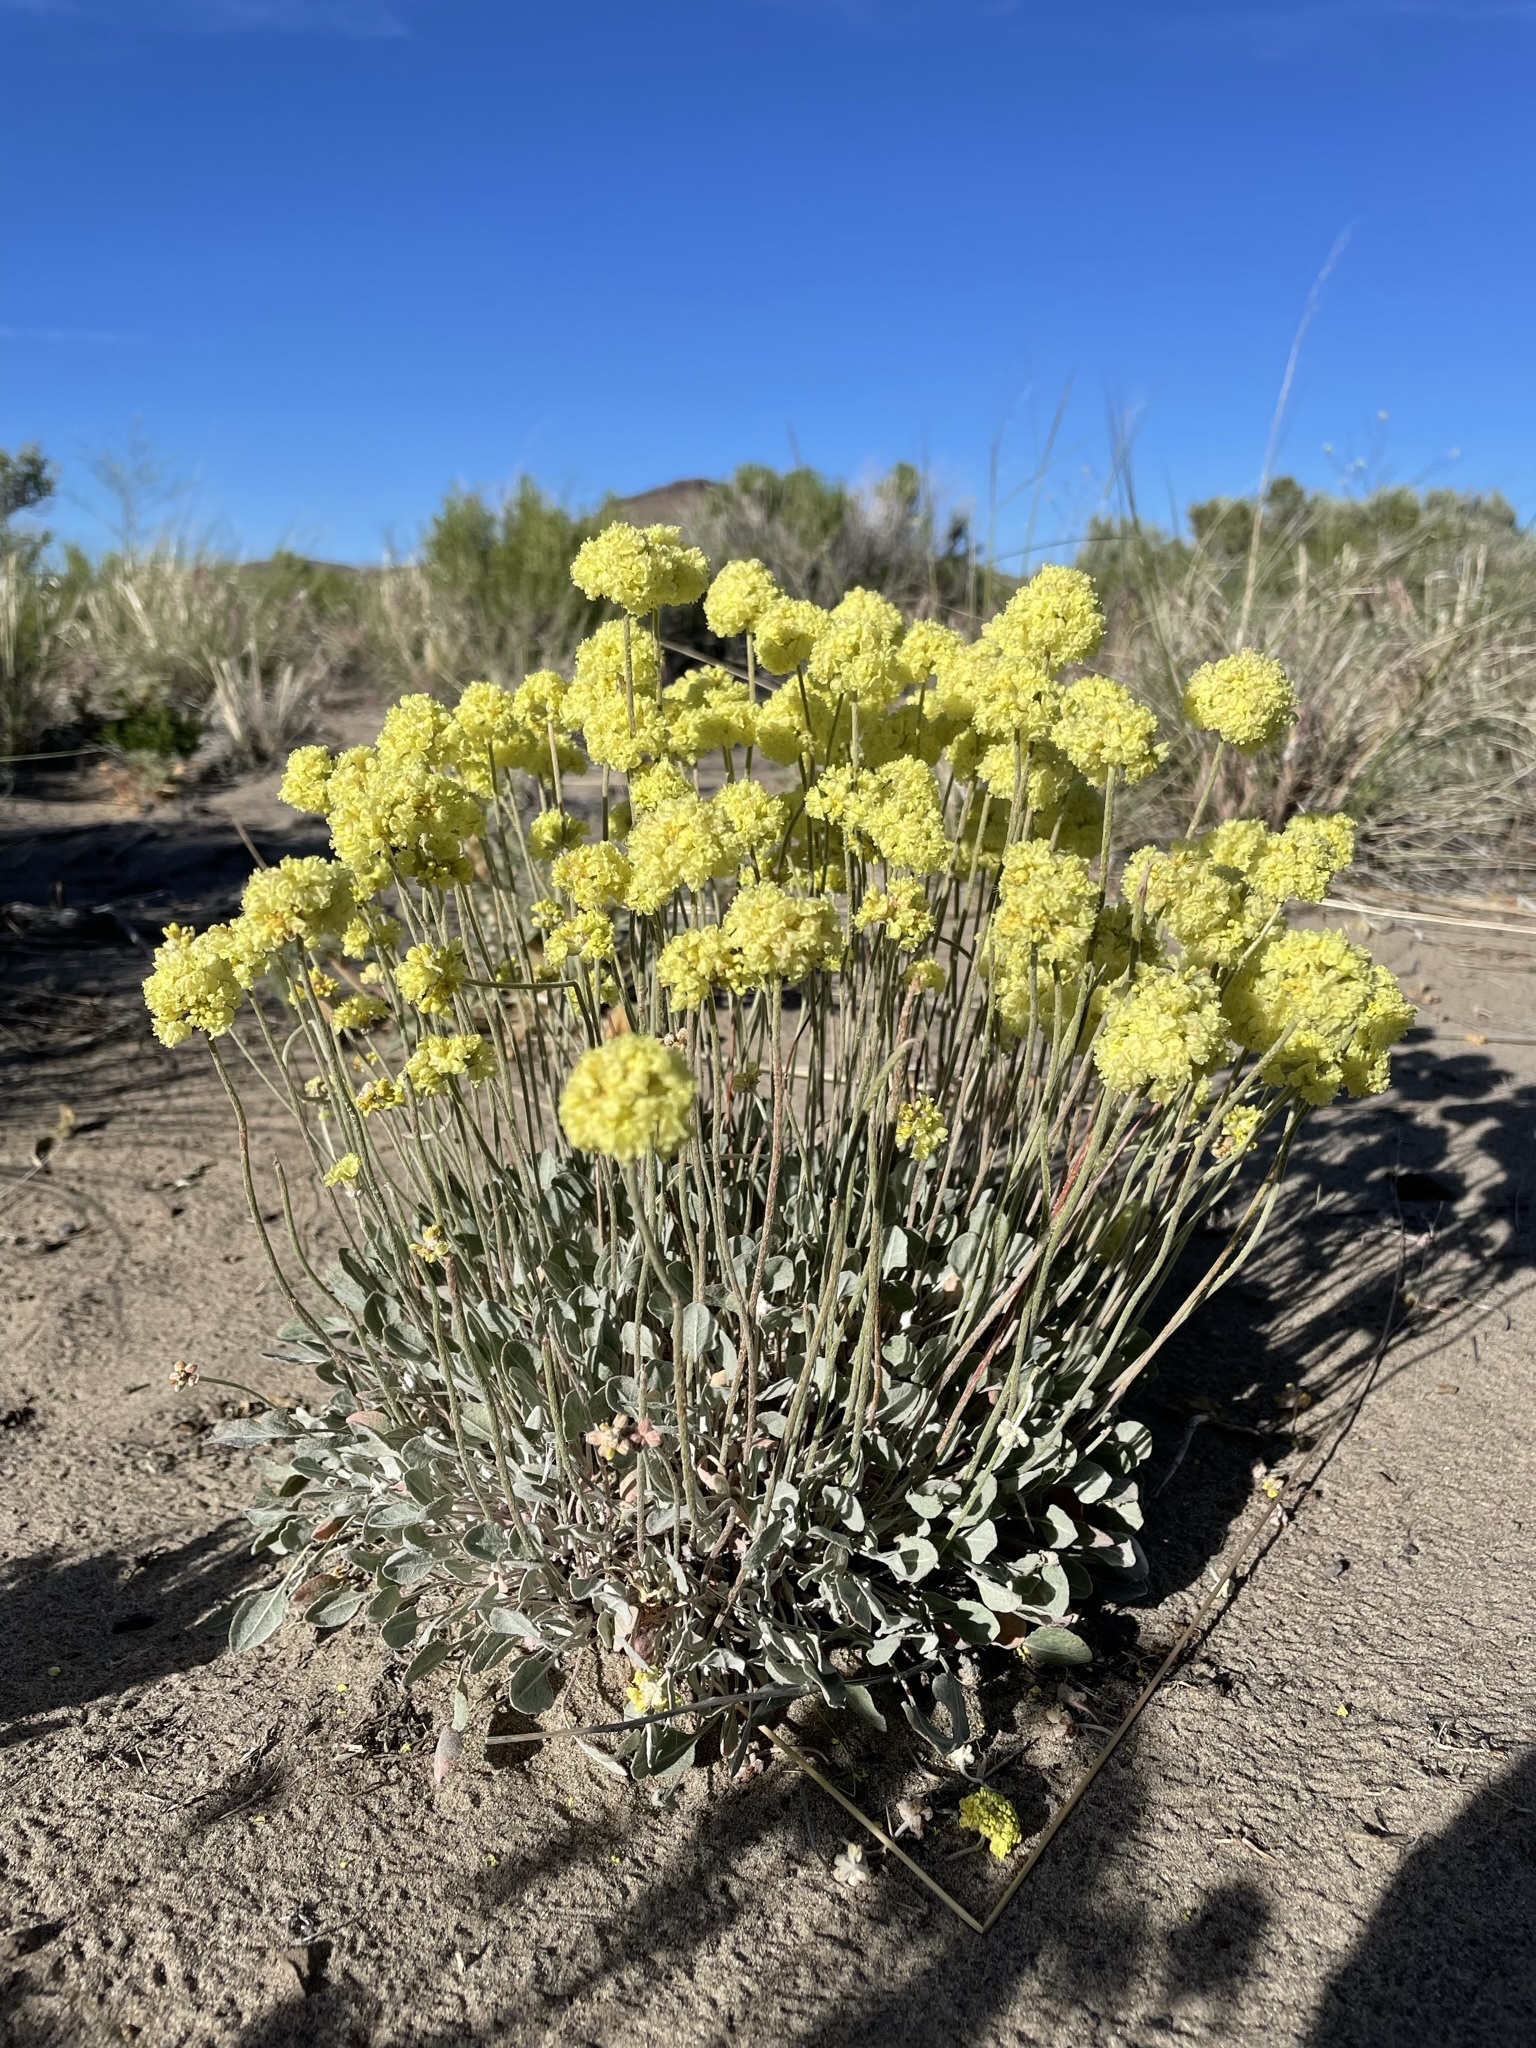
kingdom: Plantae
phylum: Tracheophyta
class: Magnoliopsida
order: Caryophyllales
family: Polygonaceae
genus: Eriogonum
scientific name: Eriogonum ovalifolium
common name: Cushion buckwheat
